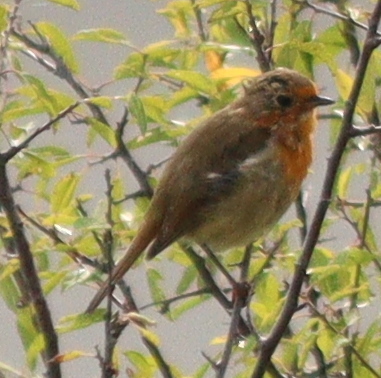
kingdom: Animalia
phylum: Chordata
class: Aves
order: Passeriformes
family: Muscicapidae
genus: Erithacus
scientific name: Erithacus rubecula
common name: European robin
